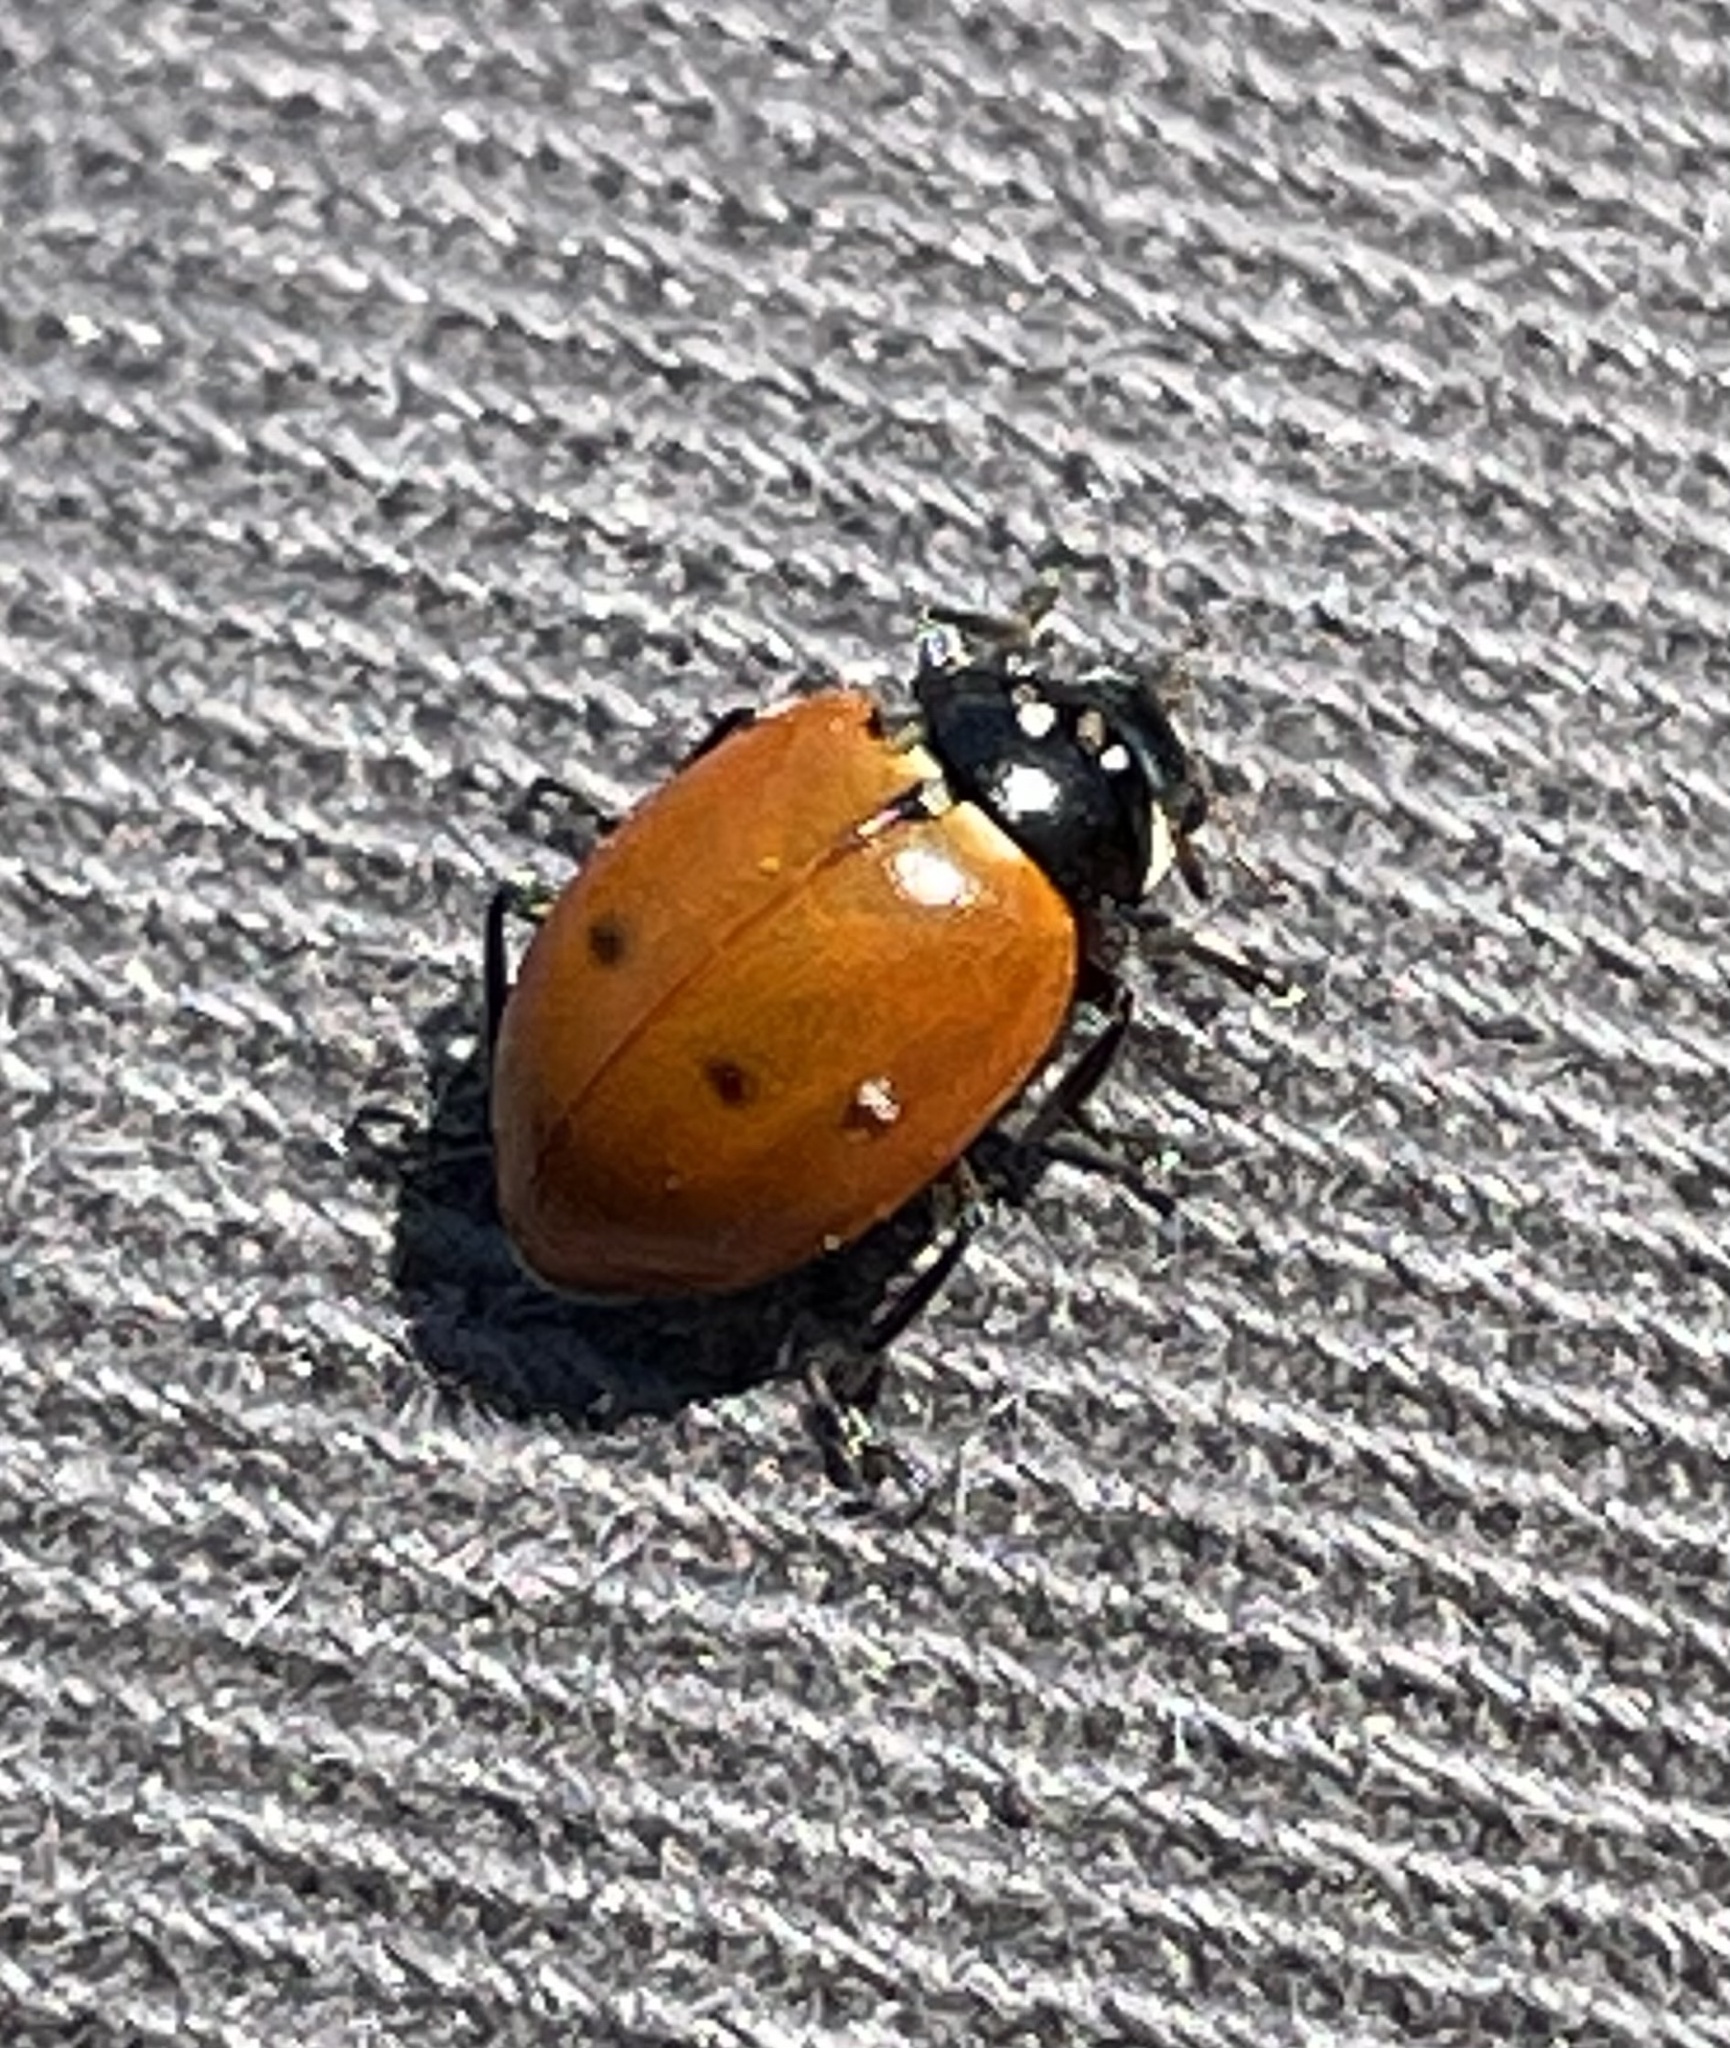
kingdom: Animalia
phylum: Arthropoda
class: Insecta
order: Coleoptera
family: Coccinellidae
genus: Hippodamia
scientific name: Hippodamia quinquesignata
